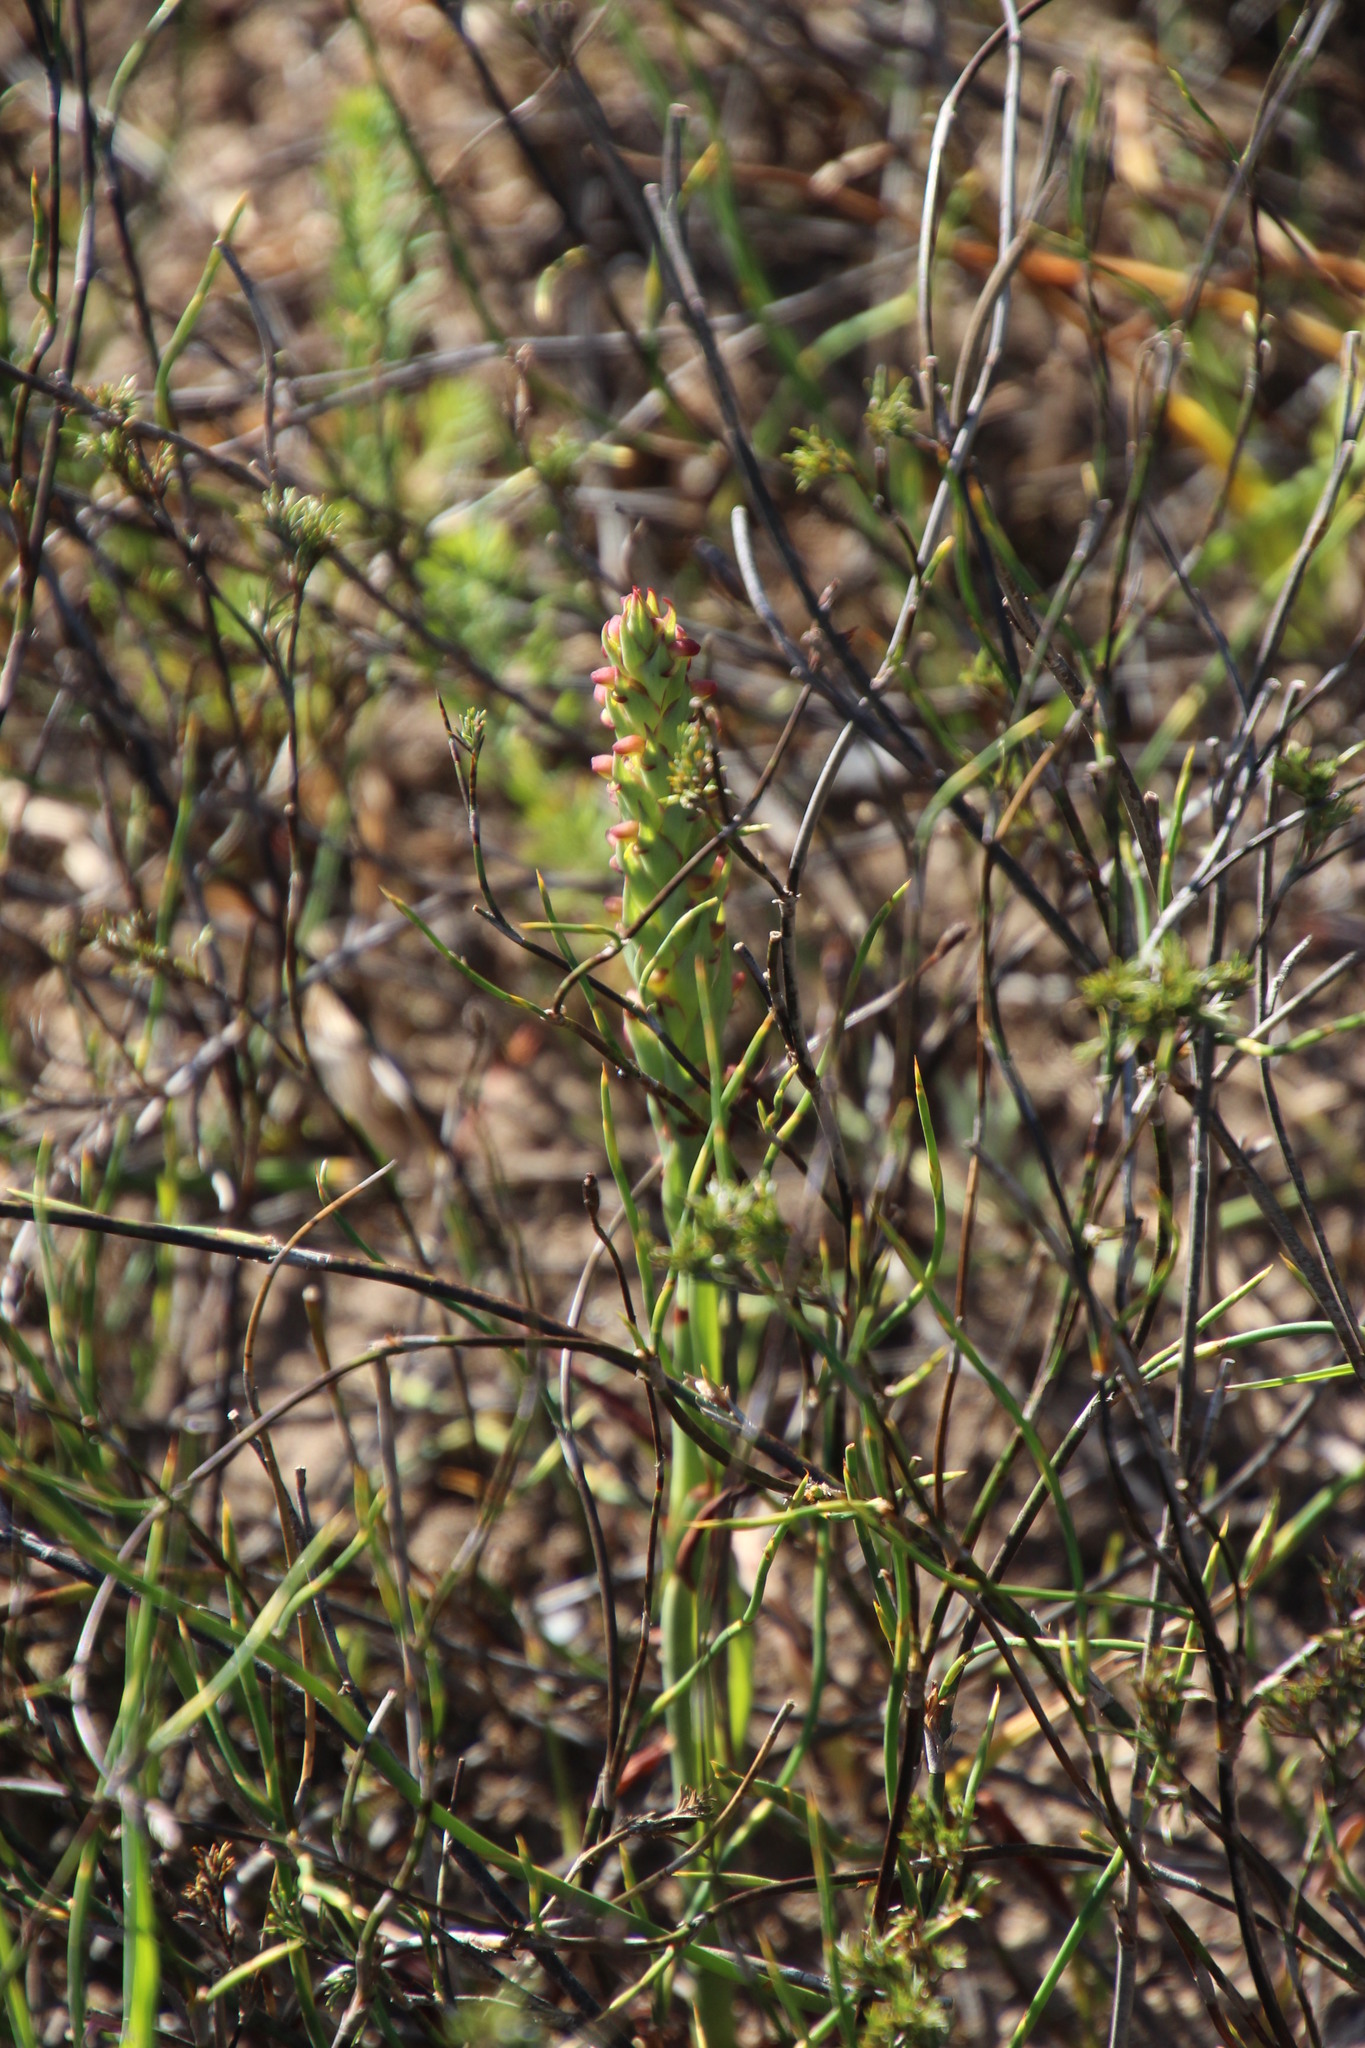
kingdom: Plantae
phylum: Tracheophyta
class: Liliopsida
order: Asparagales
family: Orchidaceae
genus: Disa
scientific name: Disa bracteata
